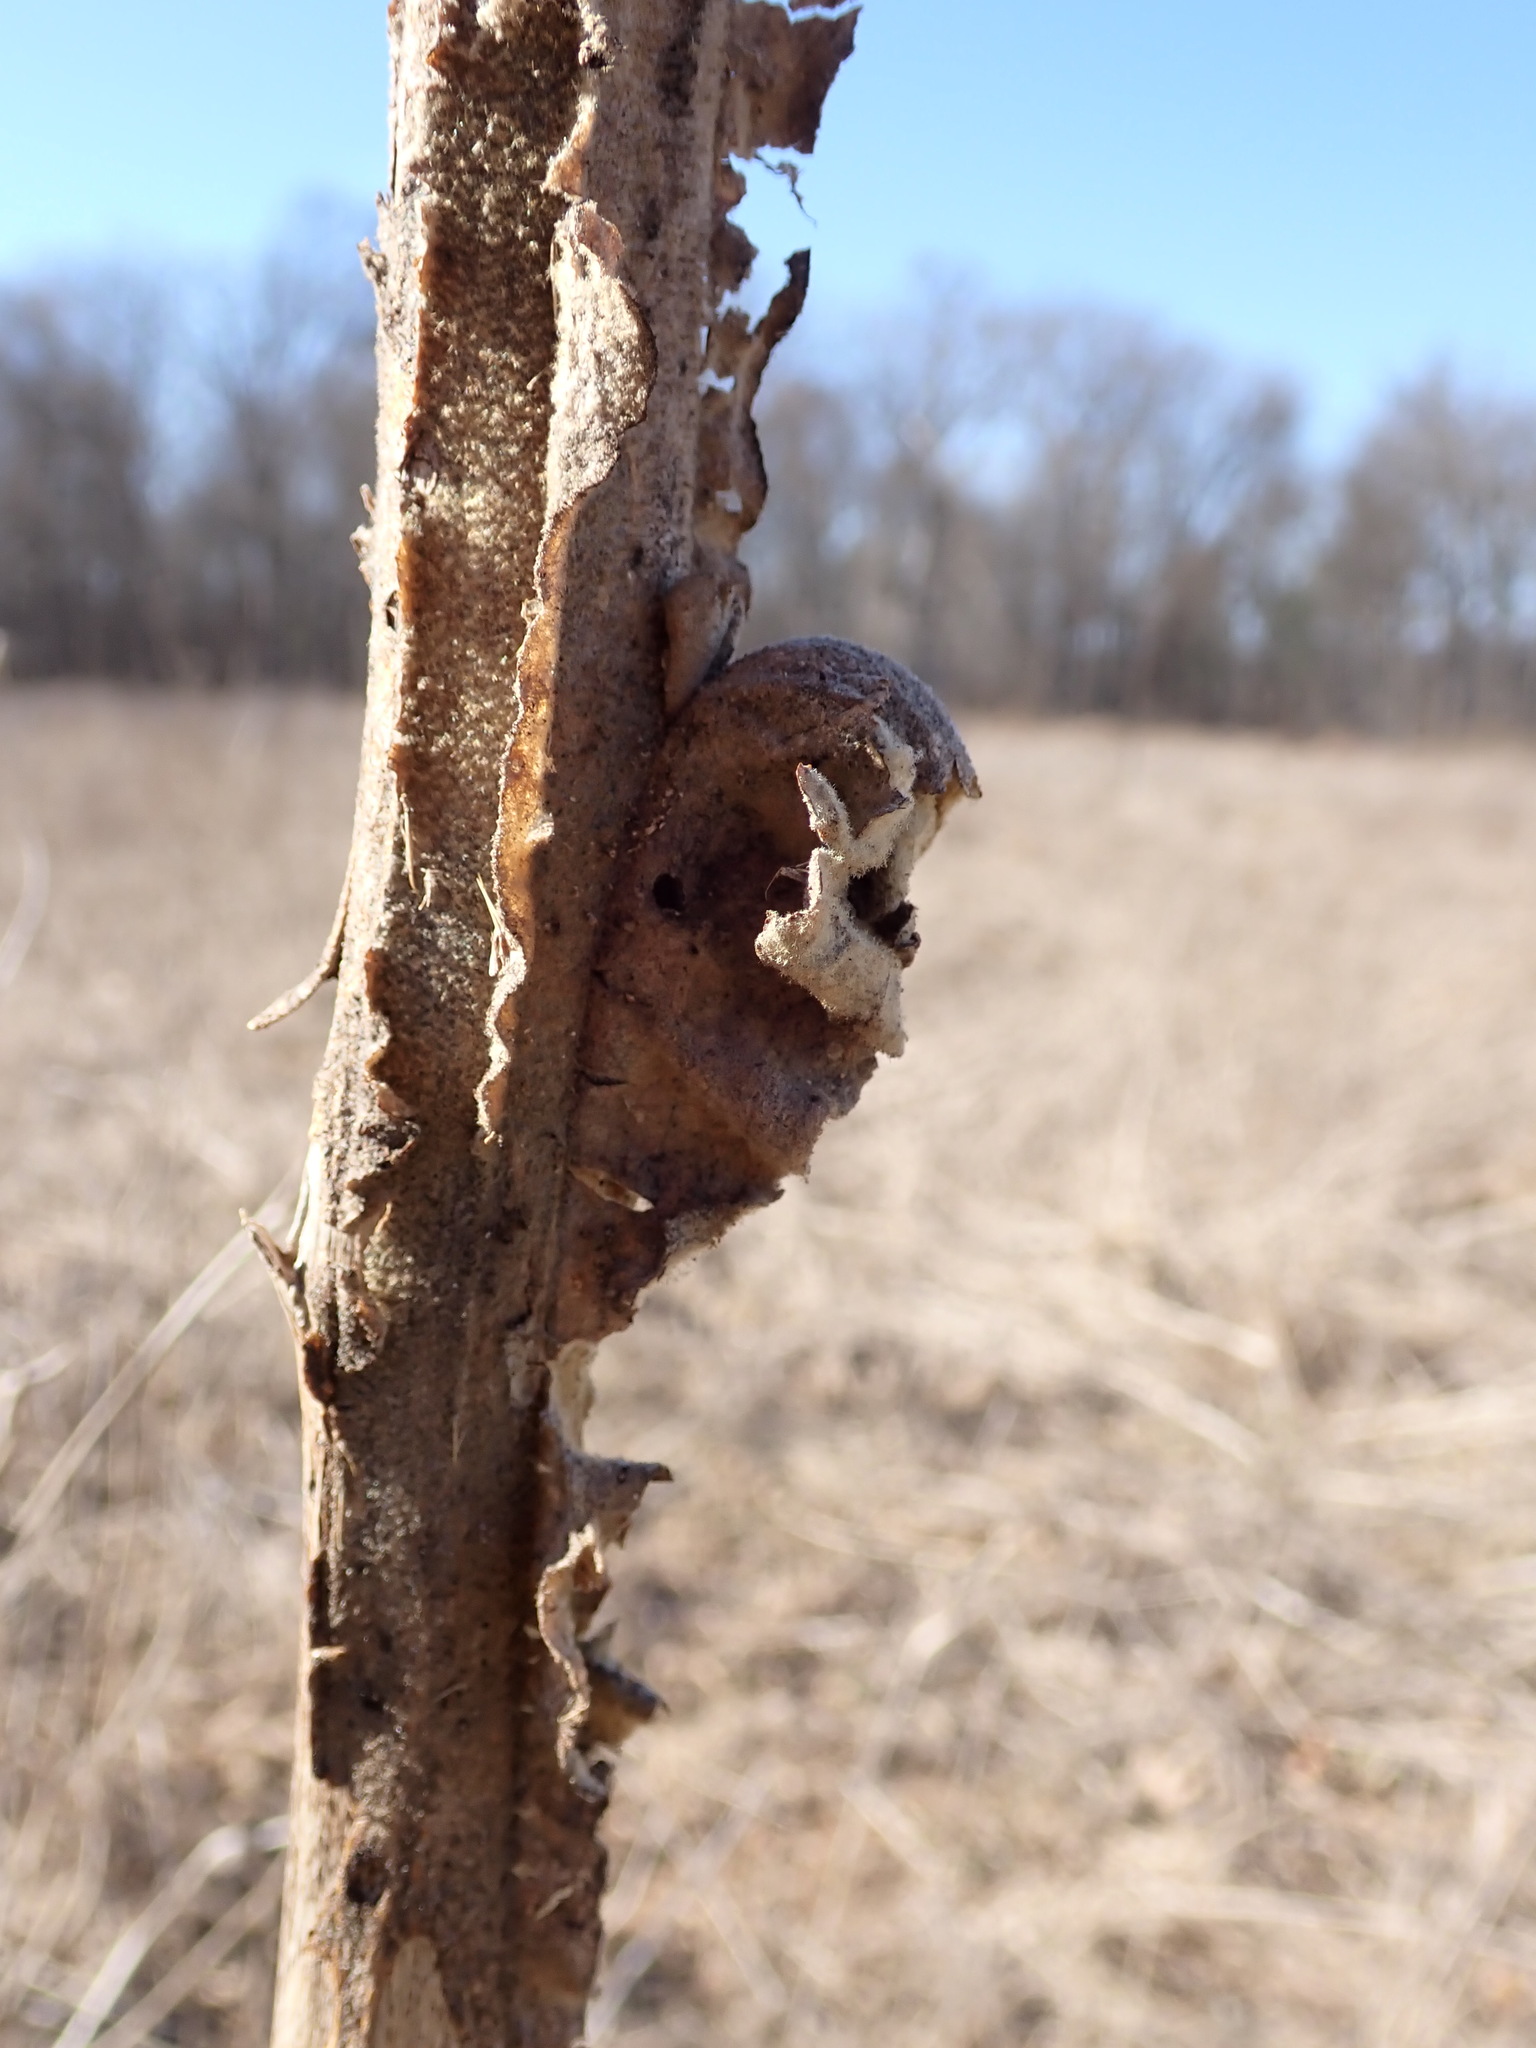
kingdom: Plantae
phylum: Tracheophyta
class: Magnoliopsida
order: Lamiales
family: Scrophulariaceae
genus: Verbascum
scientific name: Verbascum thapsus
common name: Common mullein
